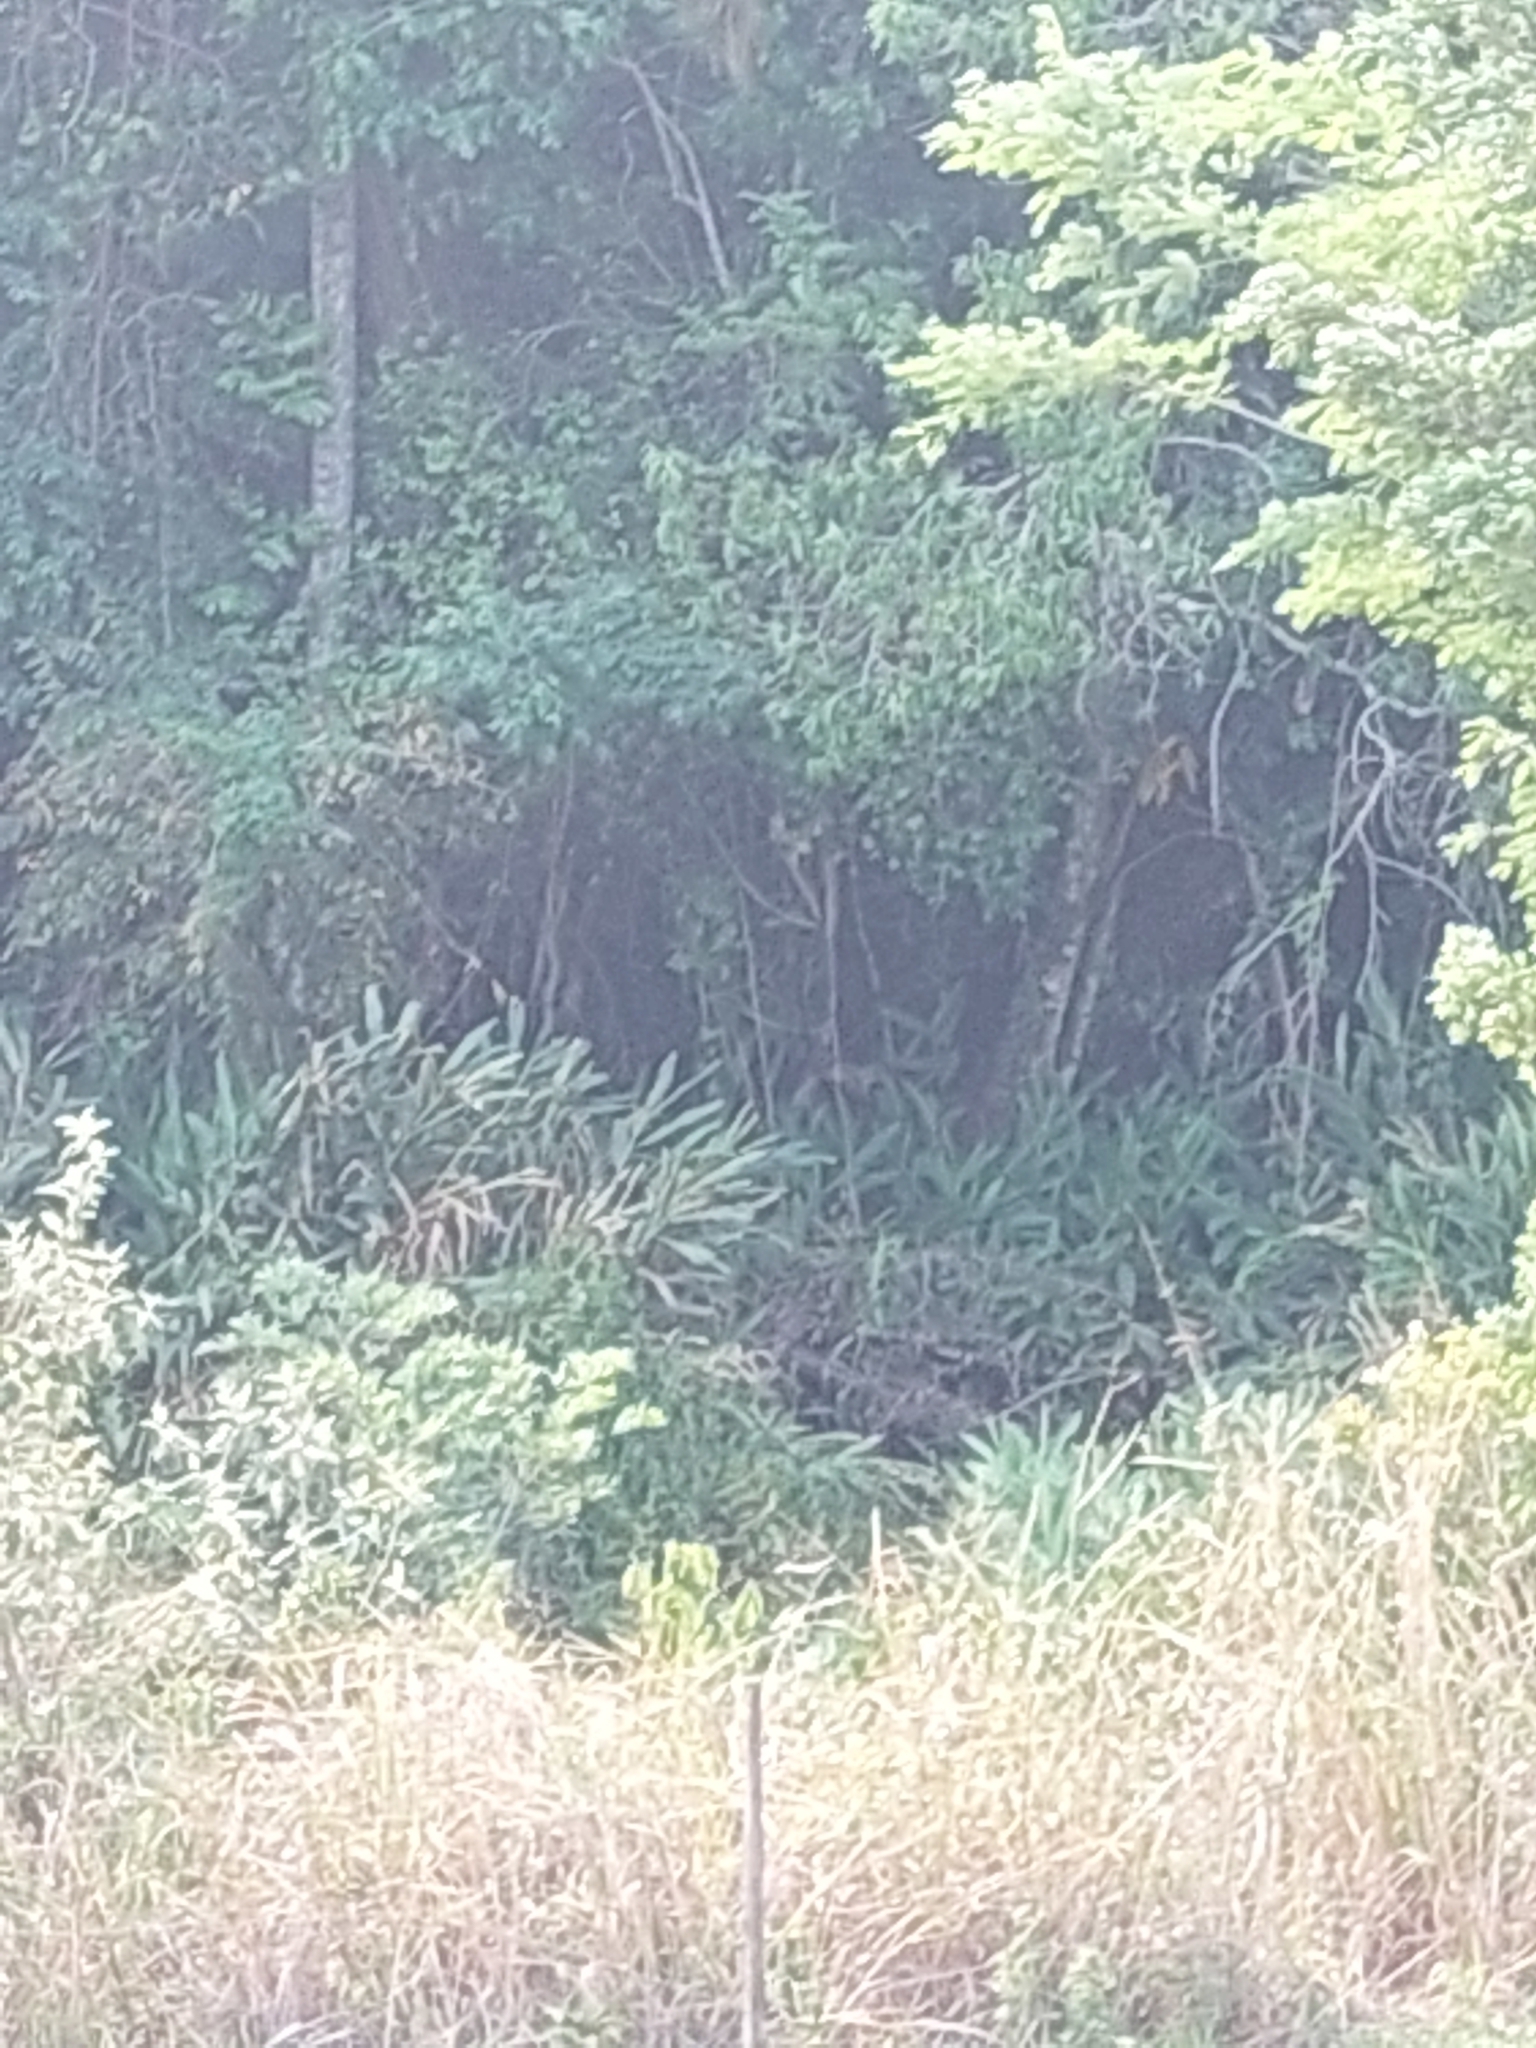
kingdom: Plantae
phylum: Tracheophyta
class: Liliopsida
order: Zingiberales
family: Zingiberaceae
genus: Hedychium
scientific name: Hedychium coronarium
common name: White garland-lily
